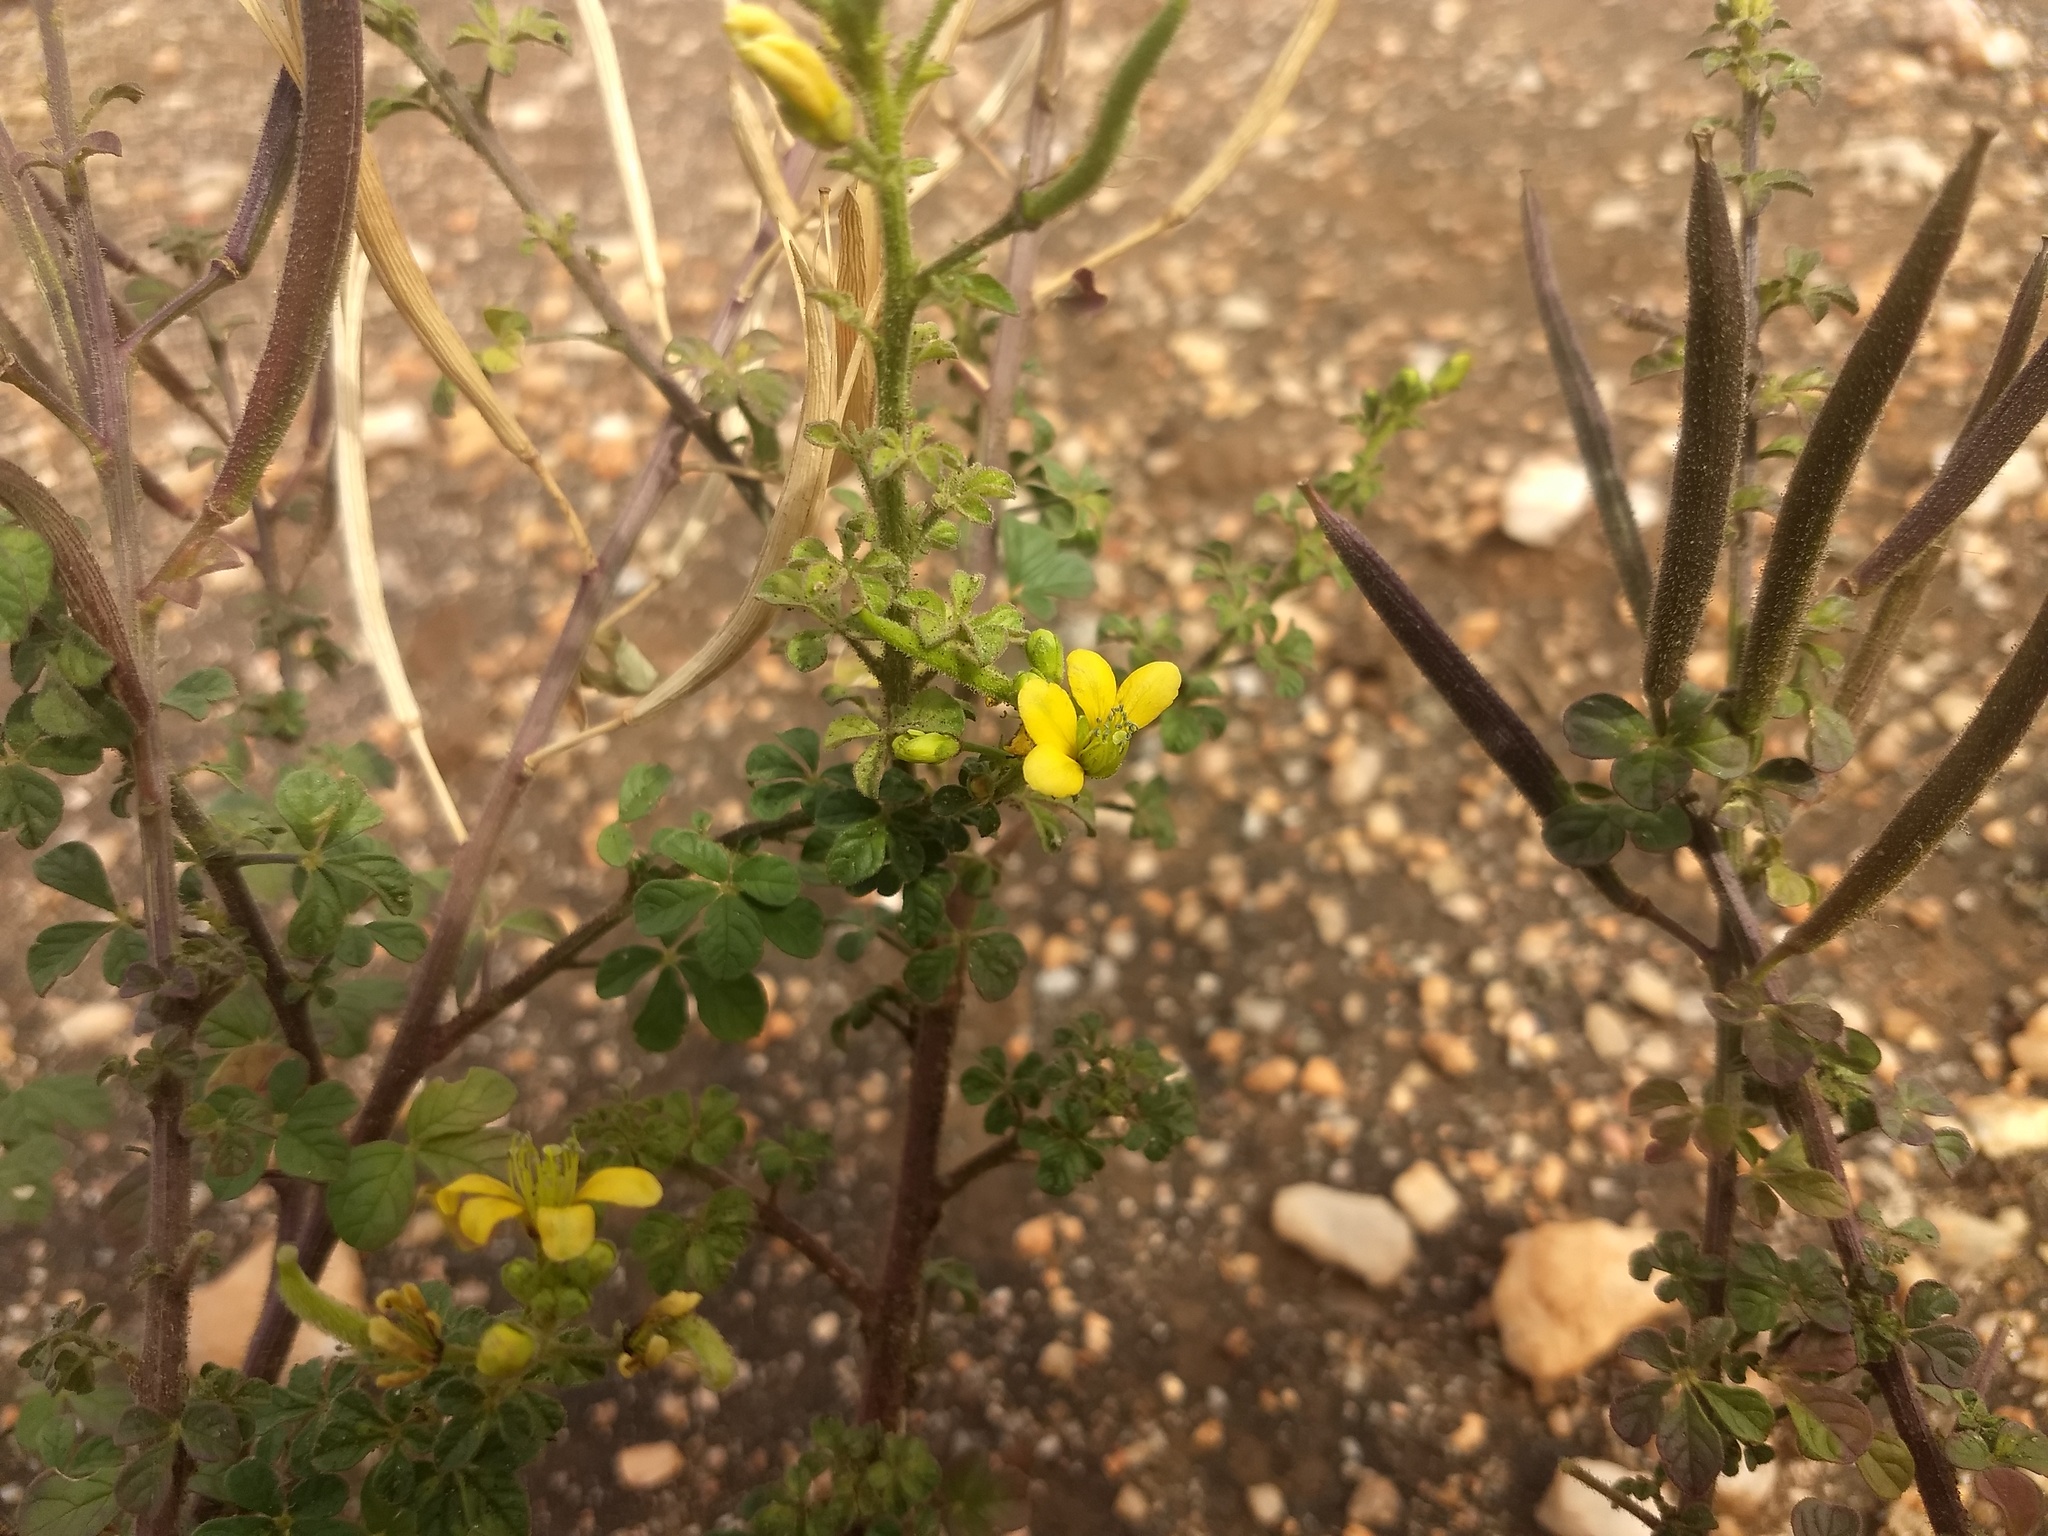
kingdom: Plantae
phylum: Tracheophyta
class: Magnoliopsida
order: Brassicales
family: Cleomaceae
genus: Arivela
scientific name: Arivela viscosa
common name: Asian spiderflower
